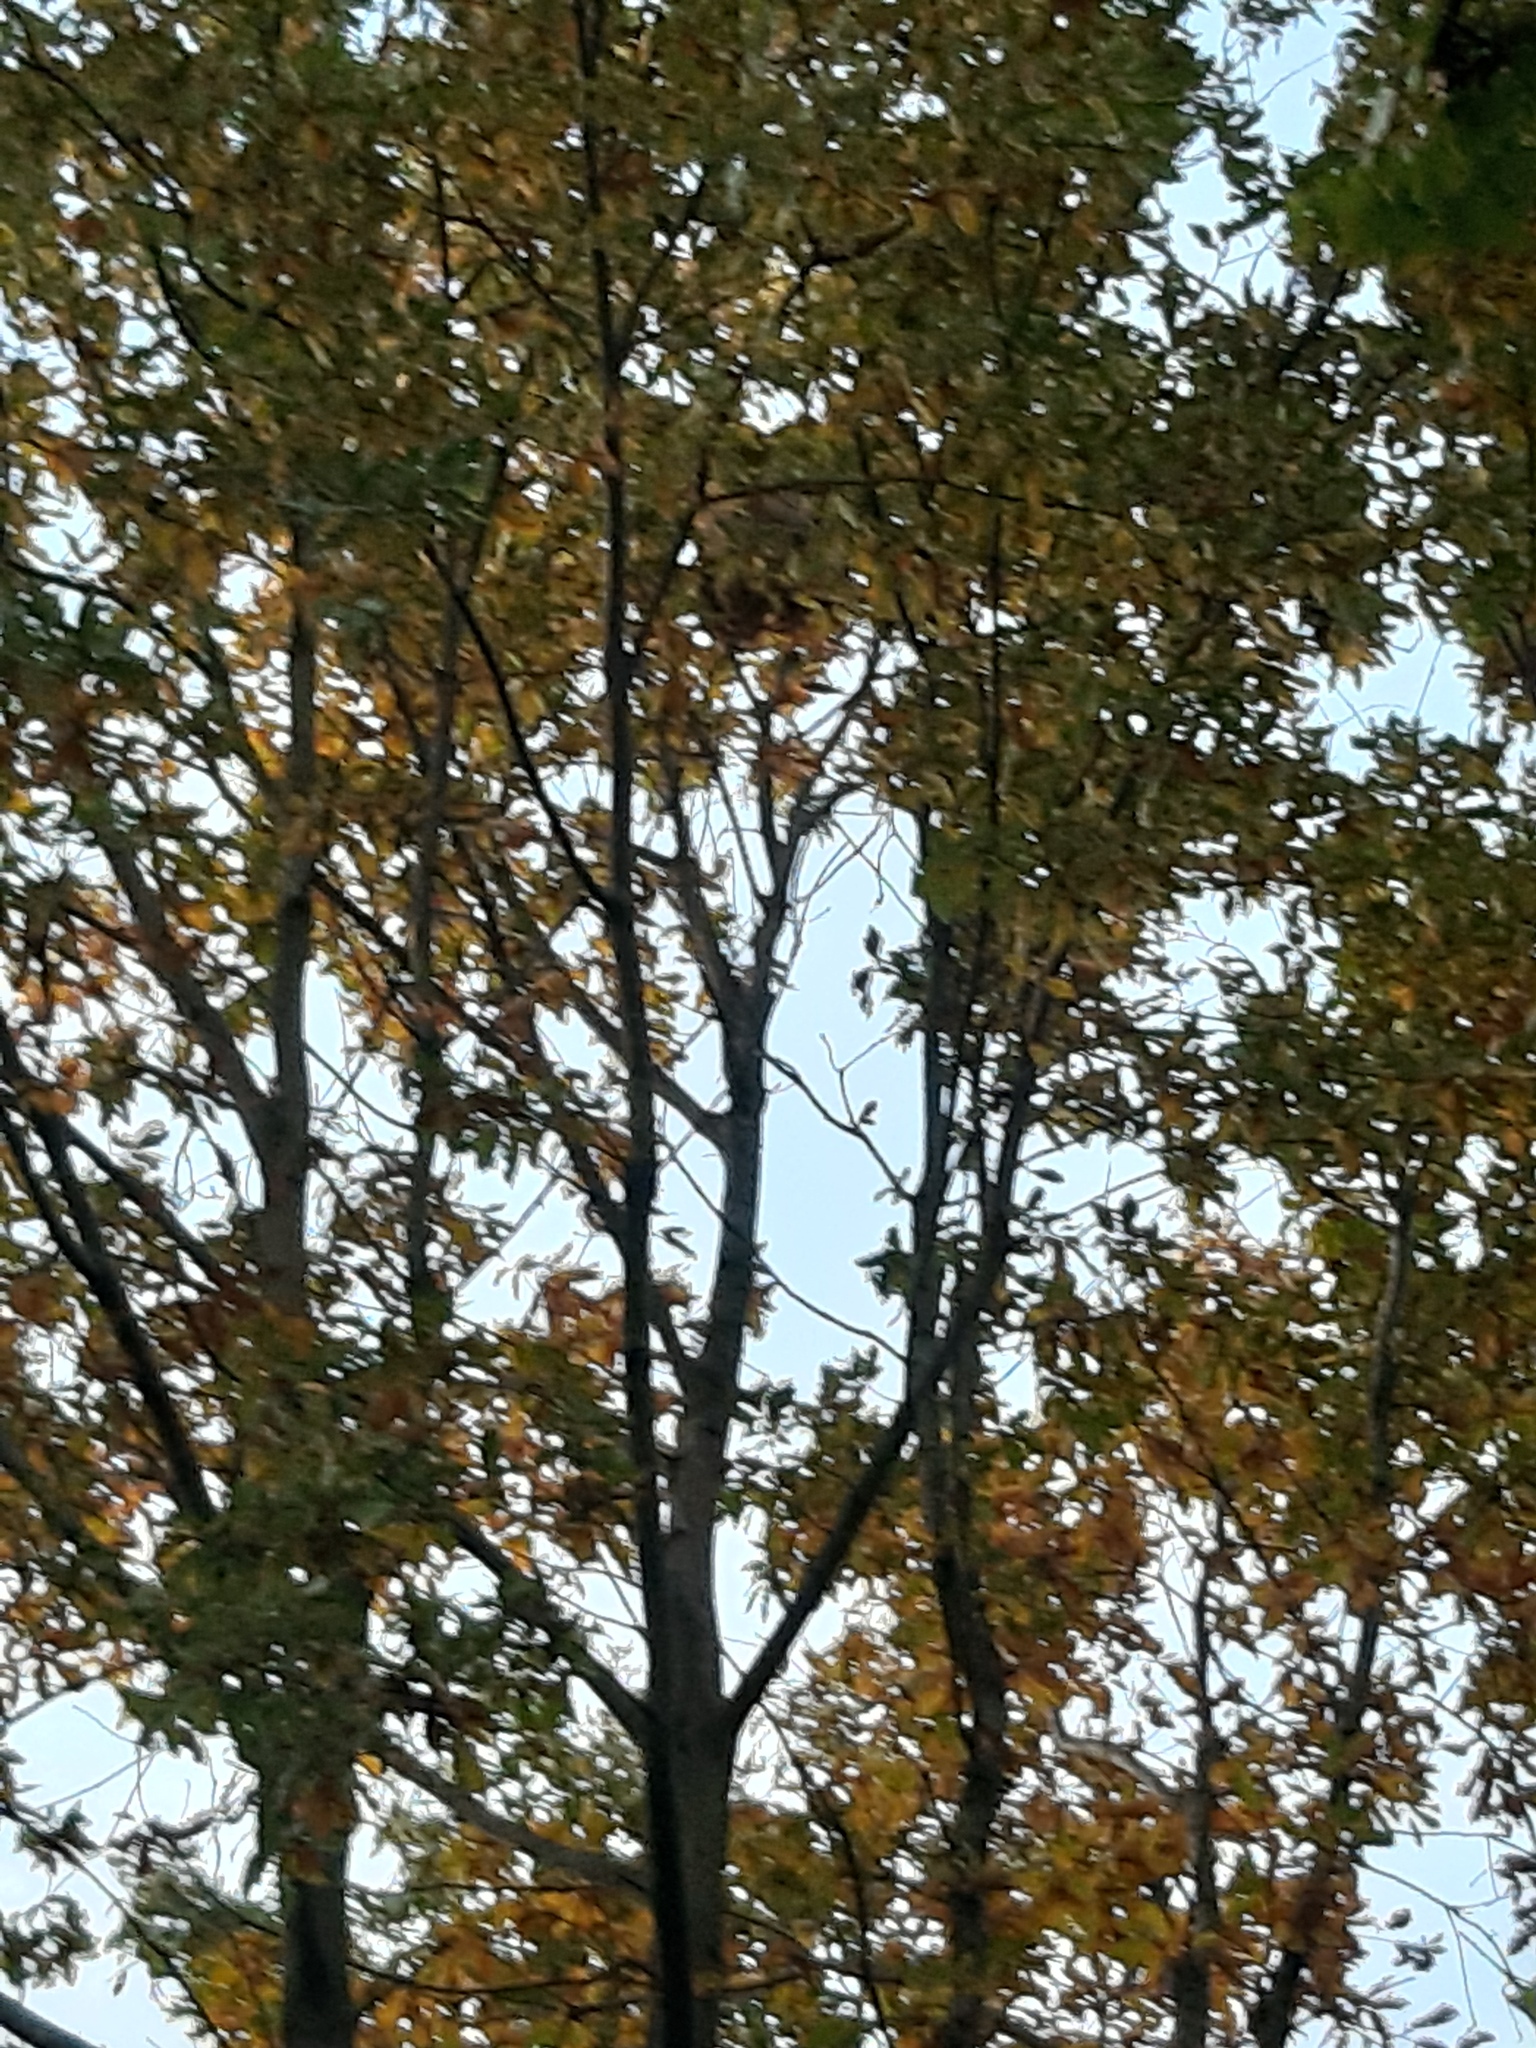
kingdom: Animalia
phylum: Arthropoda
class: Insecta
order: Hymenoptera
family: Vespidae
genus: Vespa
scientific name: Vespa velutina
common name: Asian hornet
